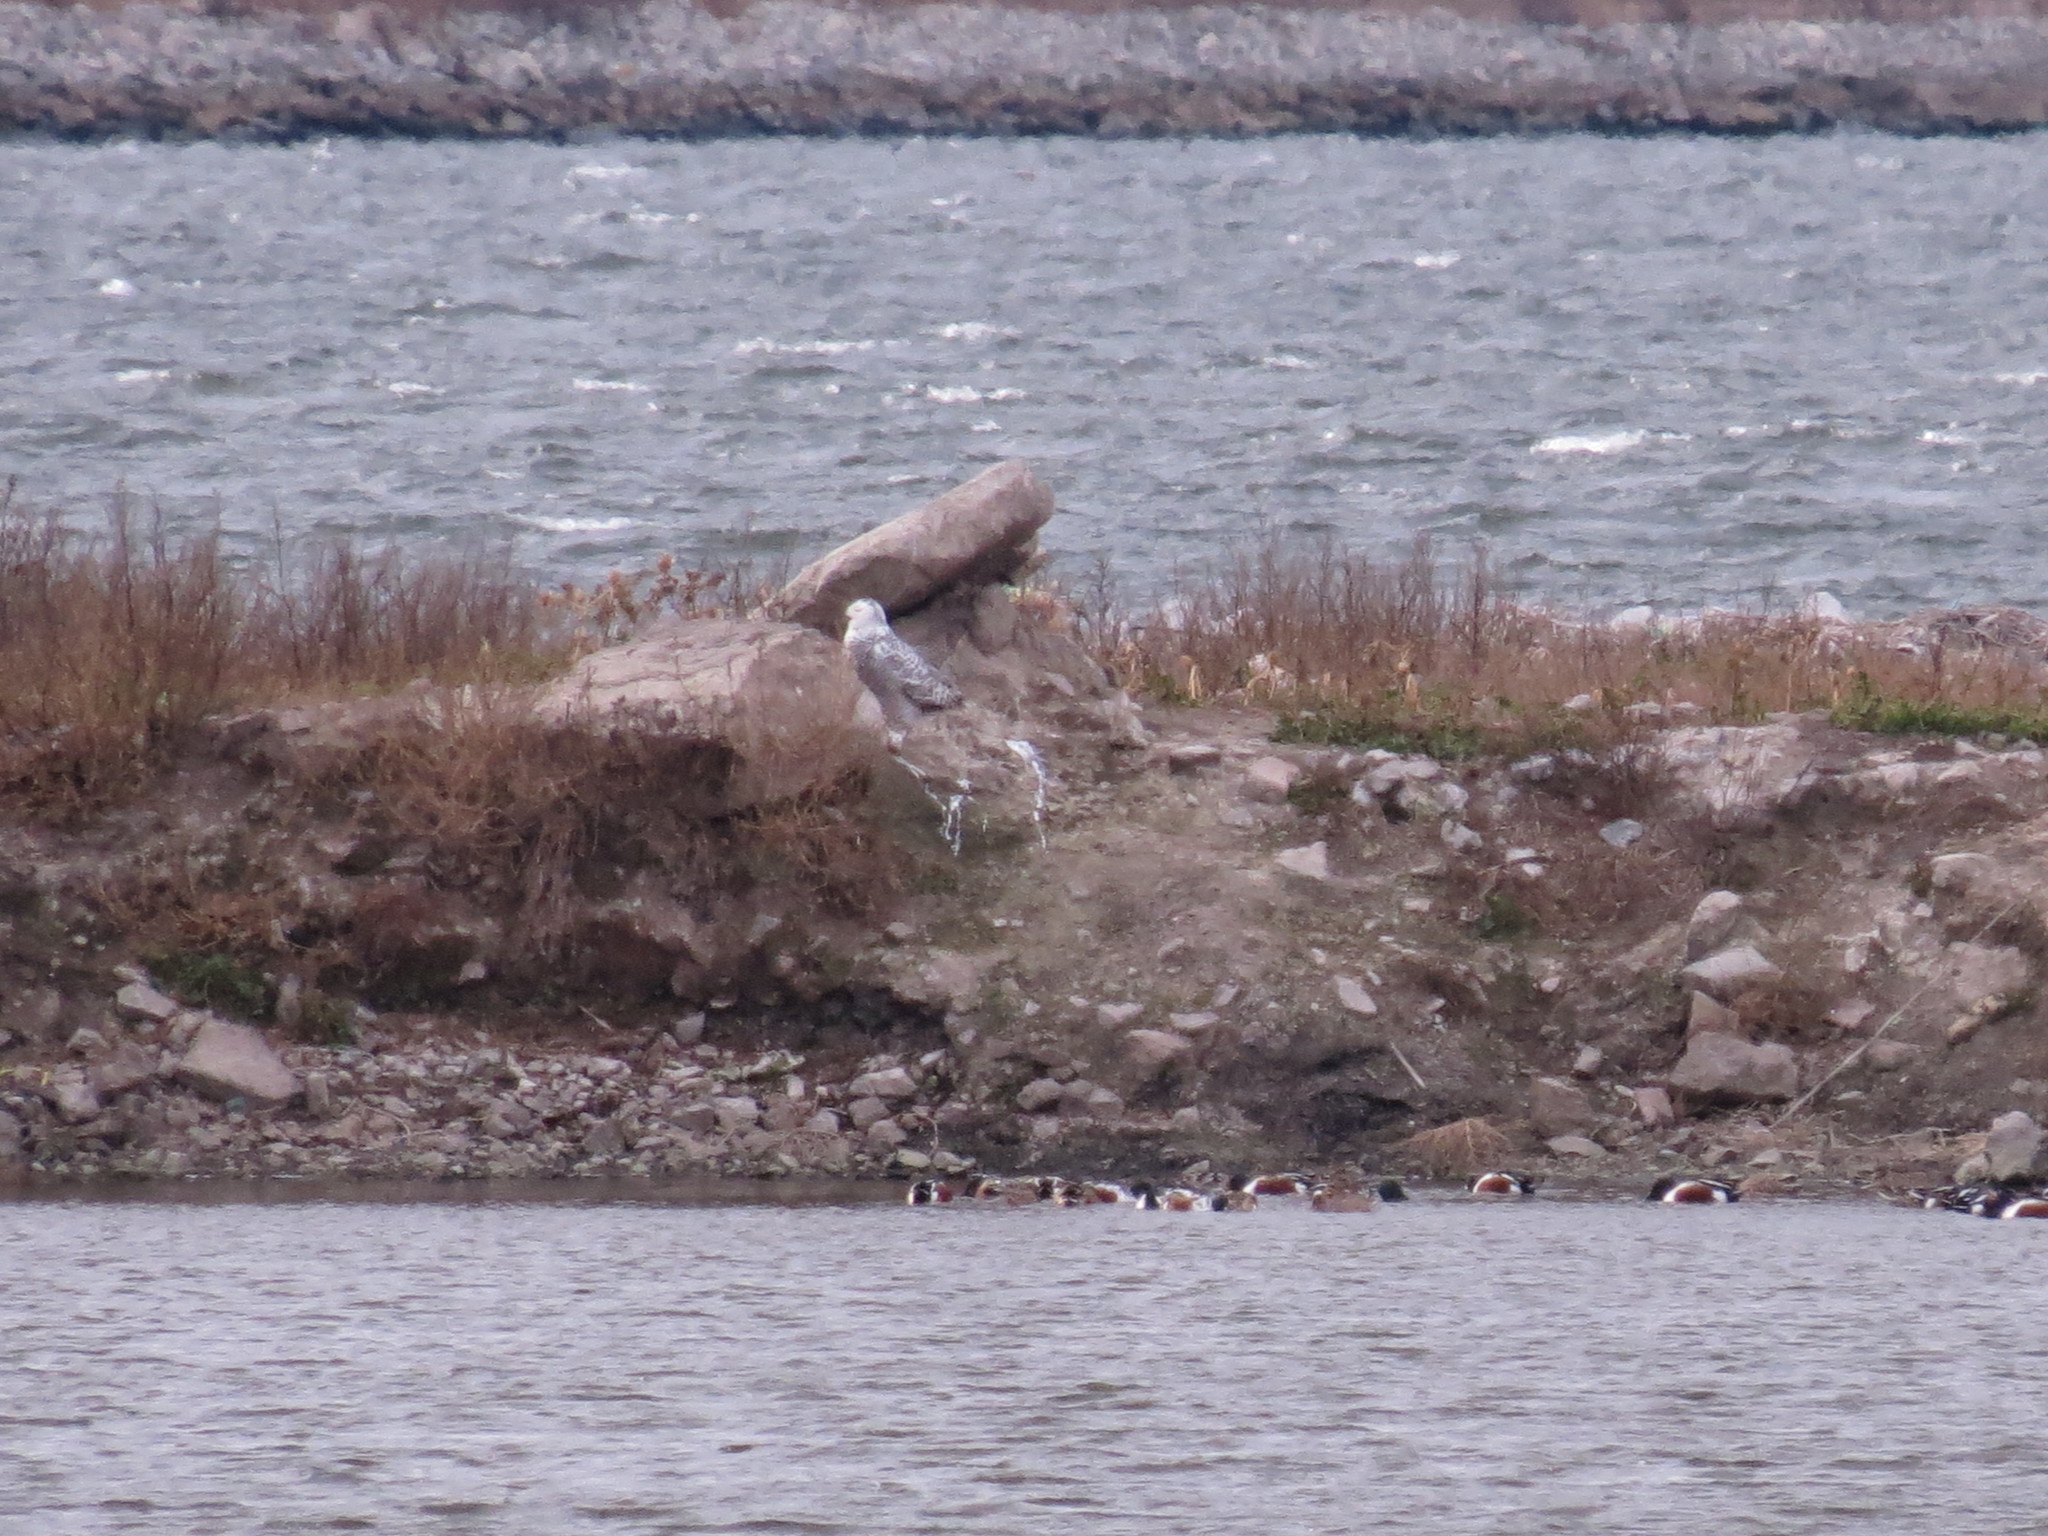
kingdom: Animalia
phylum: Chordata
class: Aves
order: Strigiformes
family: Strigidae
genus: Bubo
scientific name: Bubo scandiacus
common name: Snowy owl
